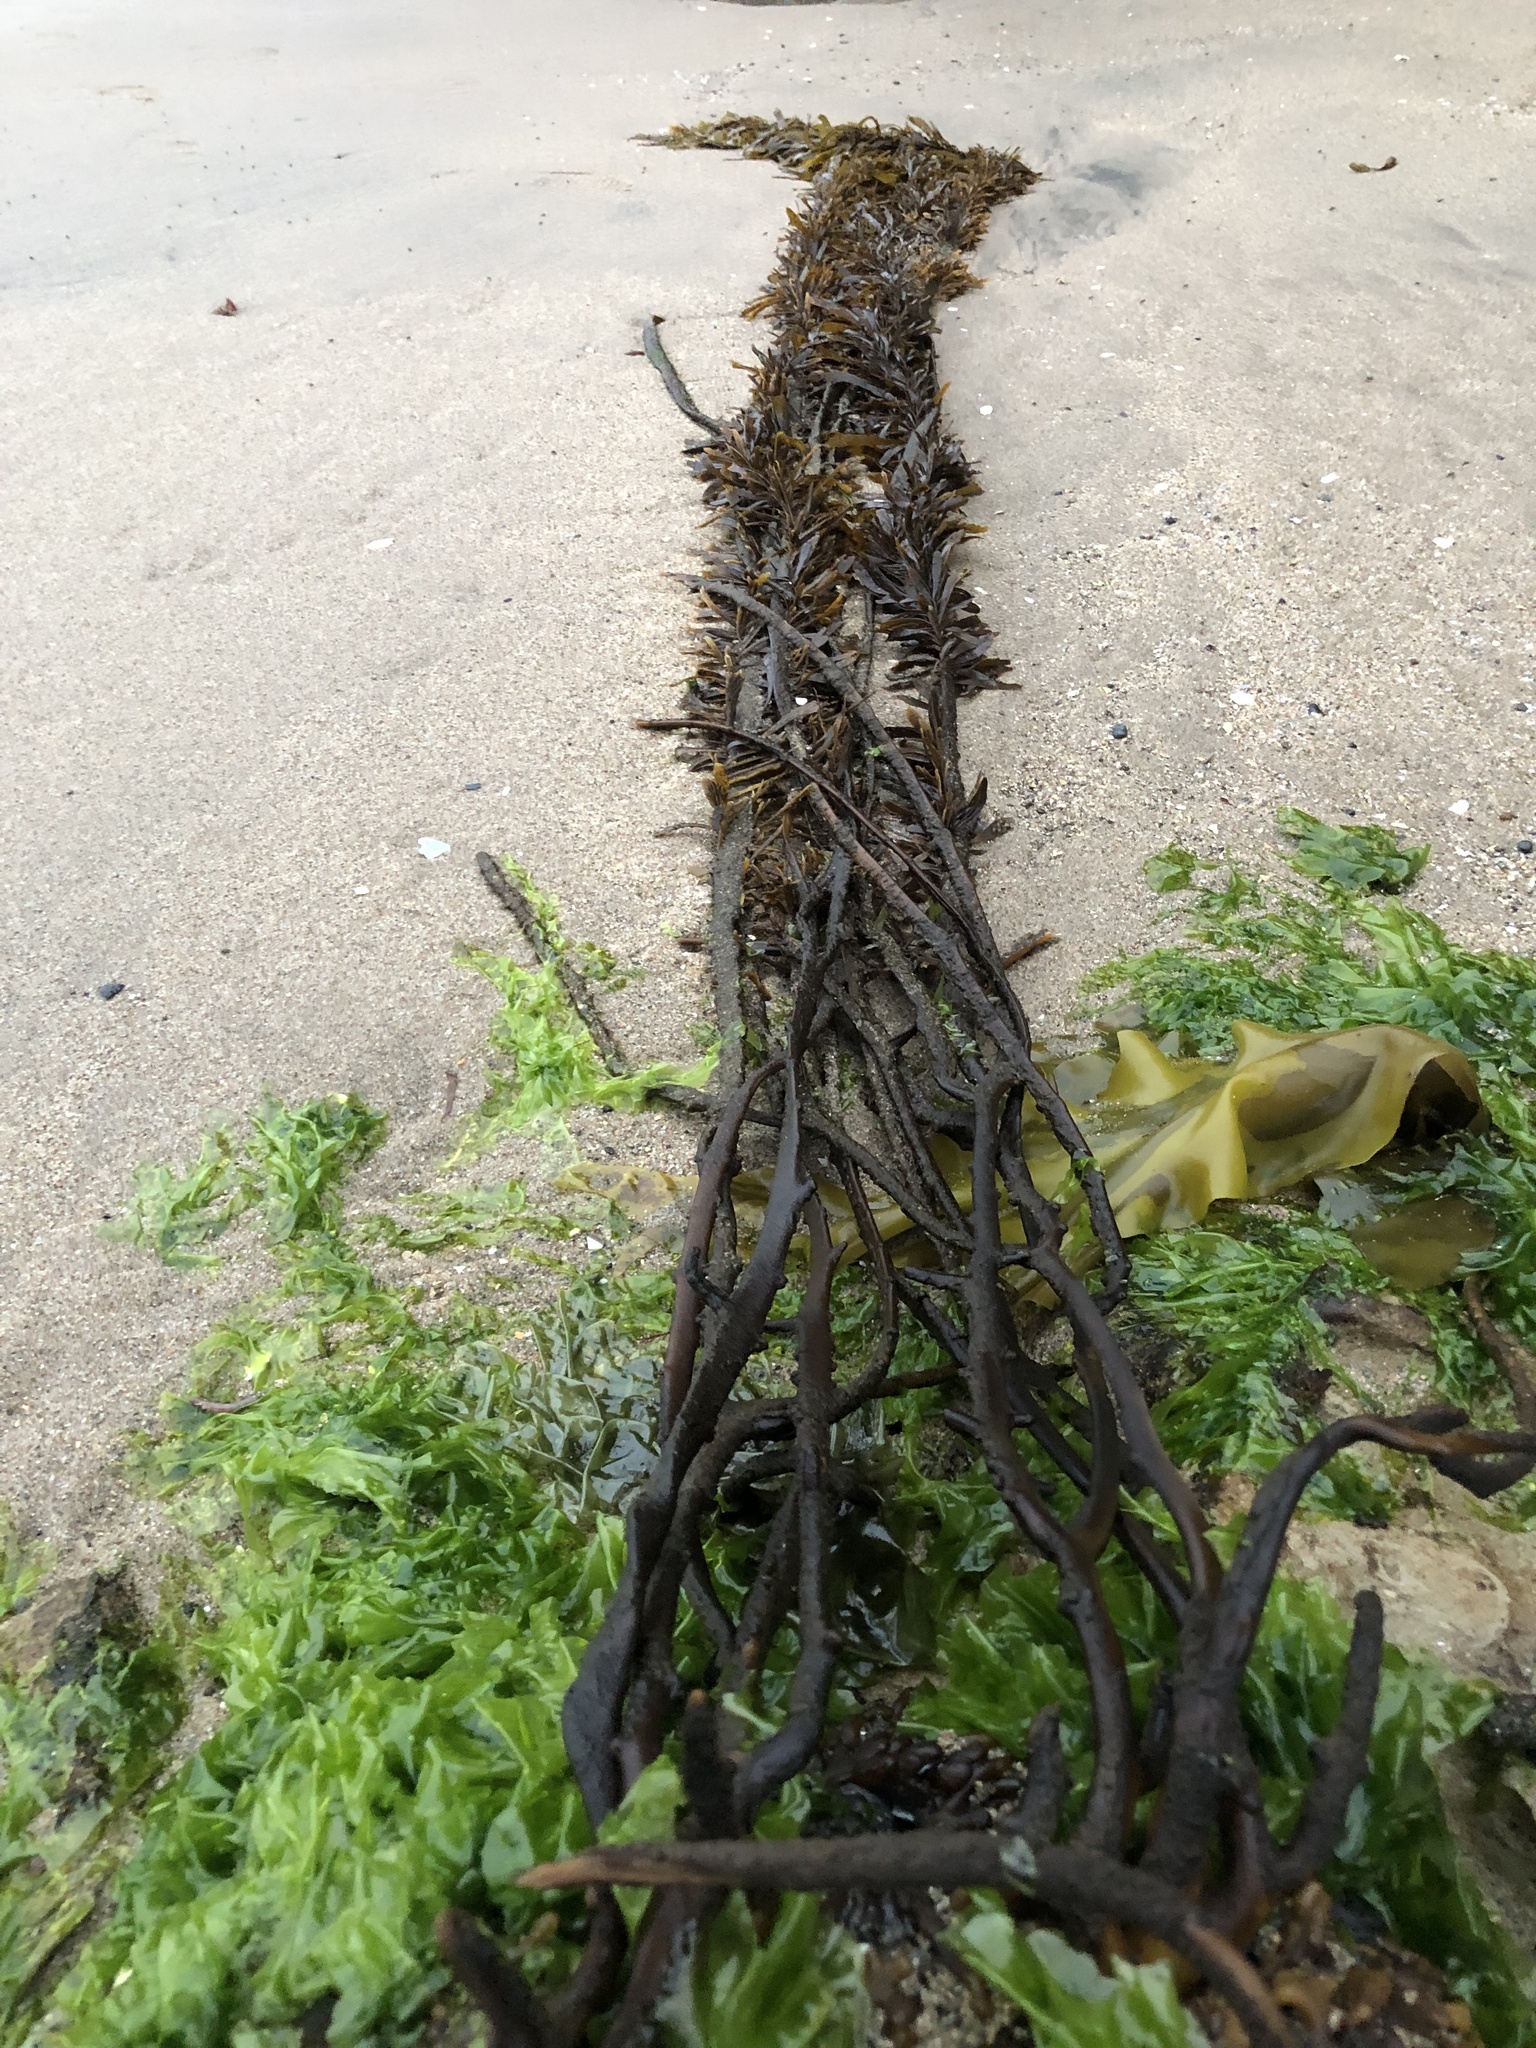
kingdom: Chromista
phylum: Ochrophyta
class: Phaeophyceae
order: Laminariales
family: Lessoniaceae
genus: Egregia
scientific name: Egregia menziesii
